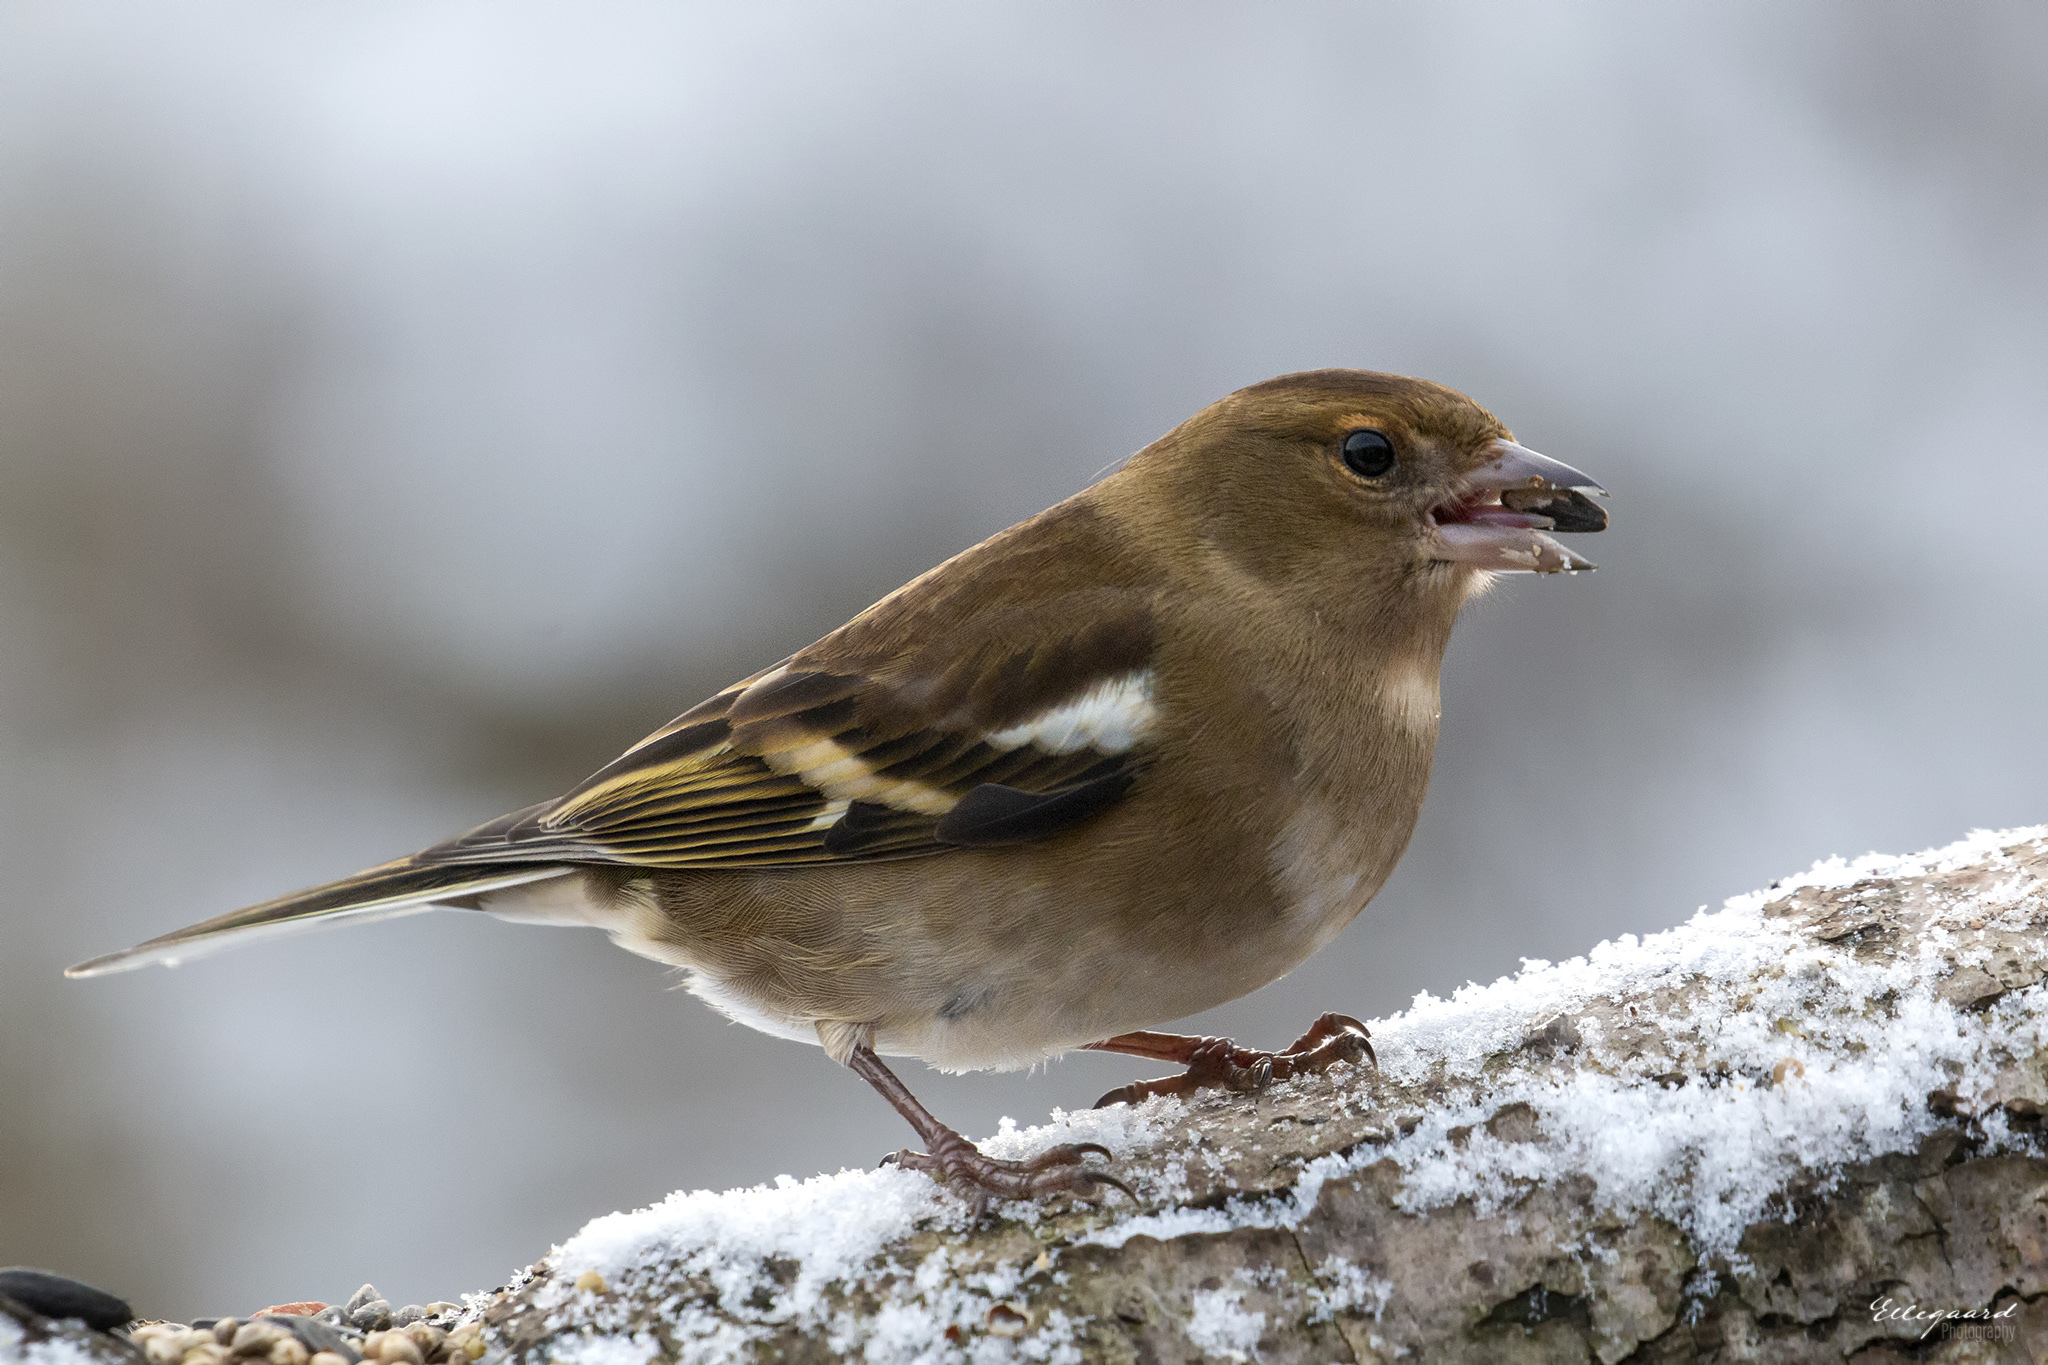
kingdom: Animalia
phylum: Chordata
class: Aves
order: Passeriformes
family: Fringillidae
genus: Fringilla
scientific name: Fringilla coelebs
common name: Common chaffinch
